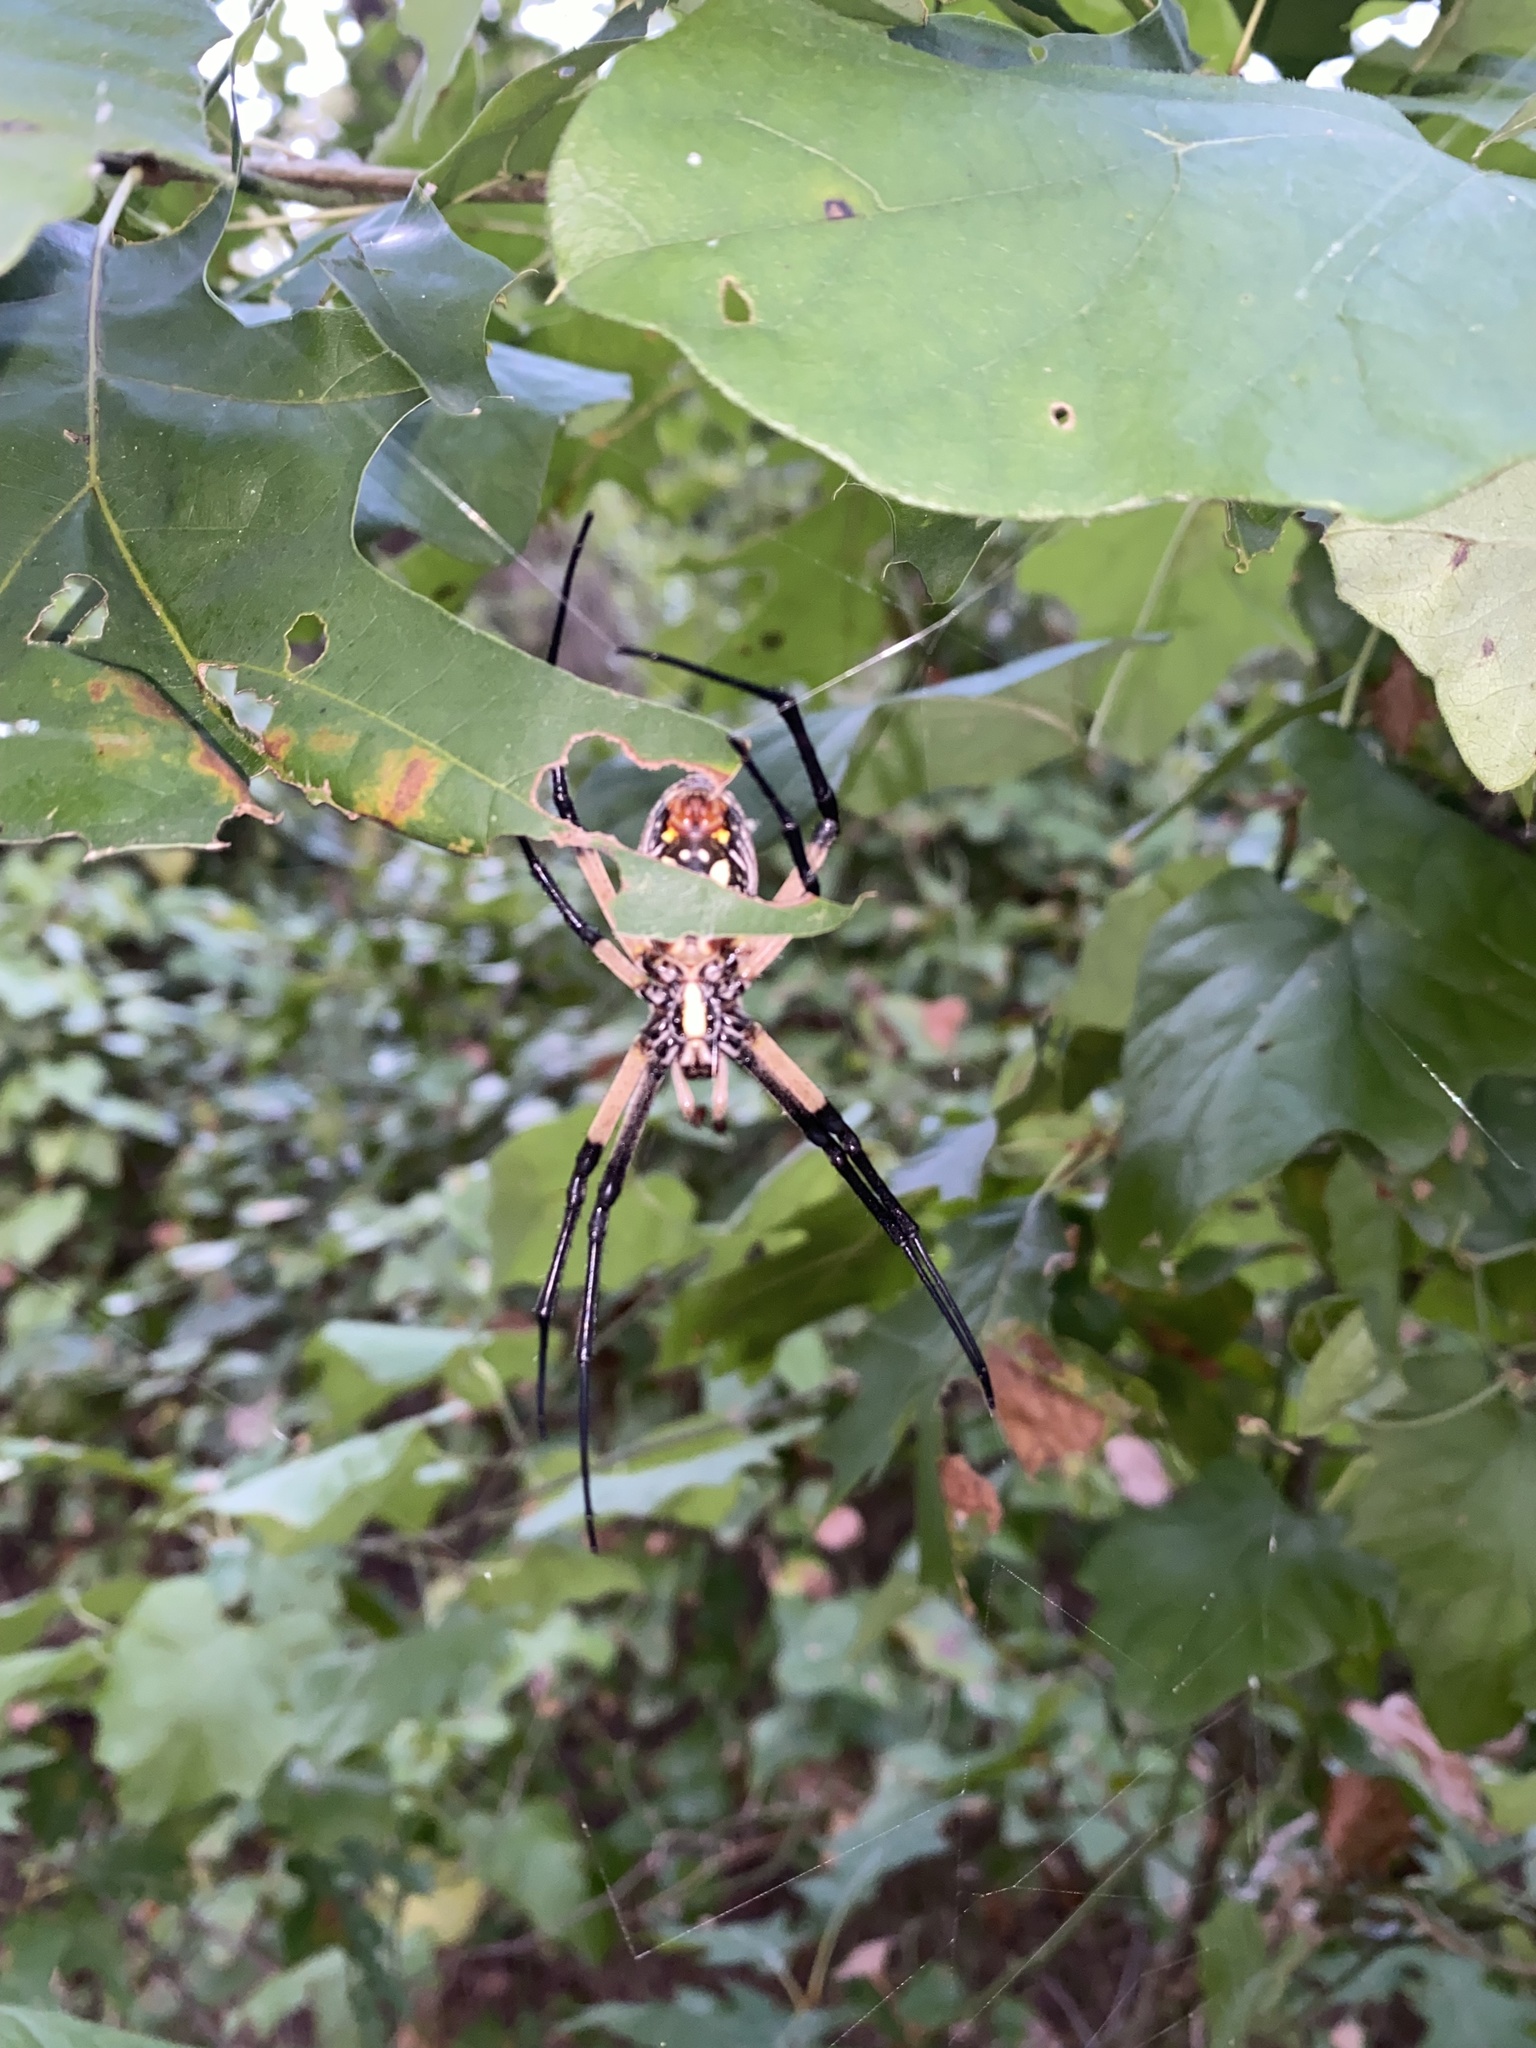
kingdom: Animalia
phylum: Arthropoda
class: Arachnida
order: Araneae
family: Araneidae
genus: Argiope
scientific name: Argiope aurantia
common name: Orb weavers
